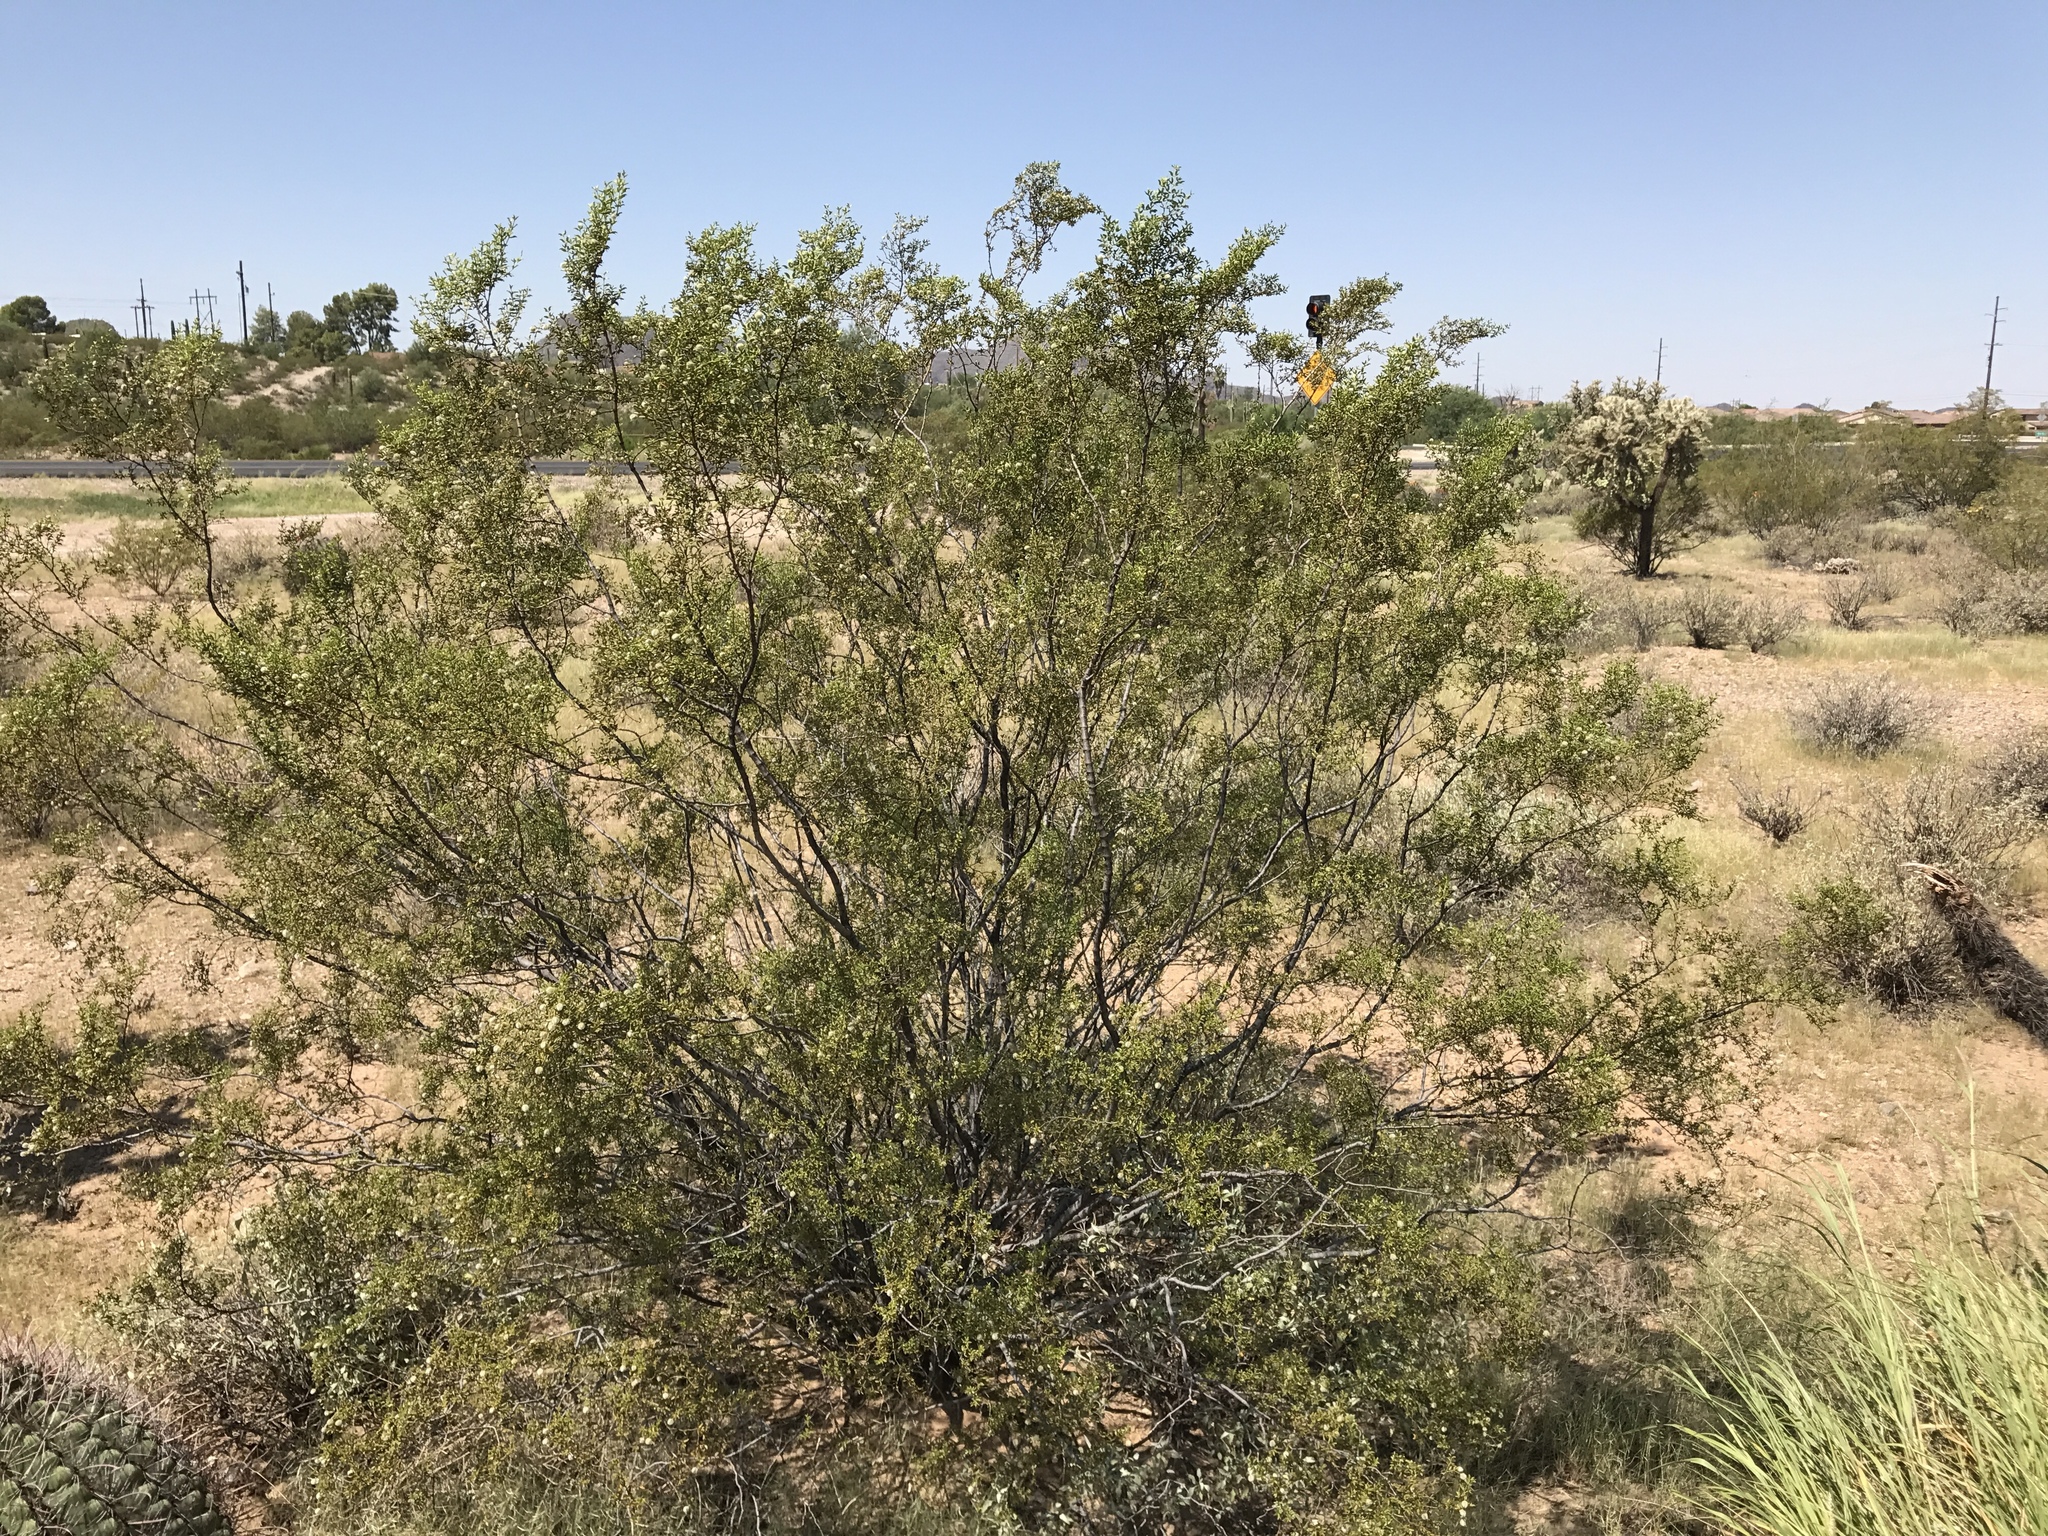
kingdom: Plantae
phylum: Tracheophyta
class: Magnoliopsida
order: Zygophyllales
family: Zygophyllaceae
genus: Larrea
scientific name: Larrea tridentata
